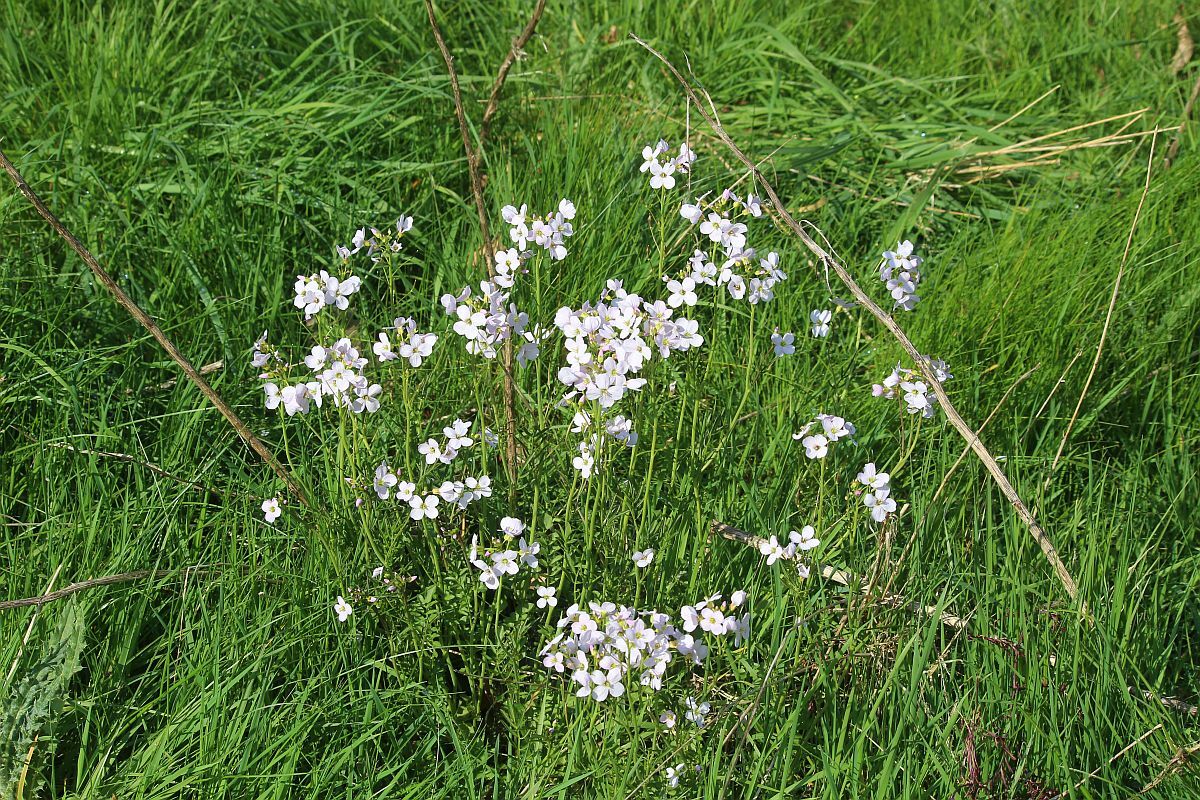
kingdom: Plantae
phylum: Tracheophyta
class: Magnoliopsida
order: Brassicales
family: Brassicaceae
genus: Cardamine
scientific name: Cardamine pratensis
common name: Cuckoo flower
